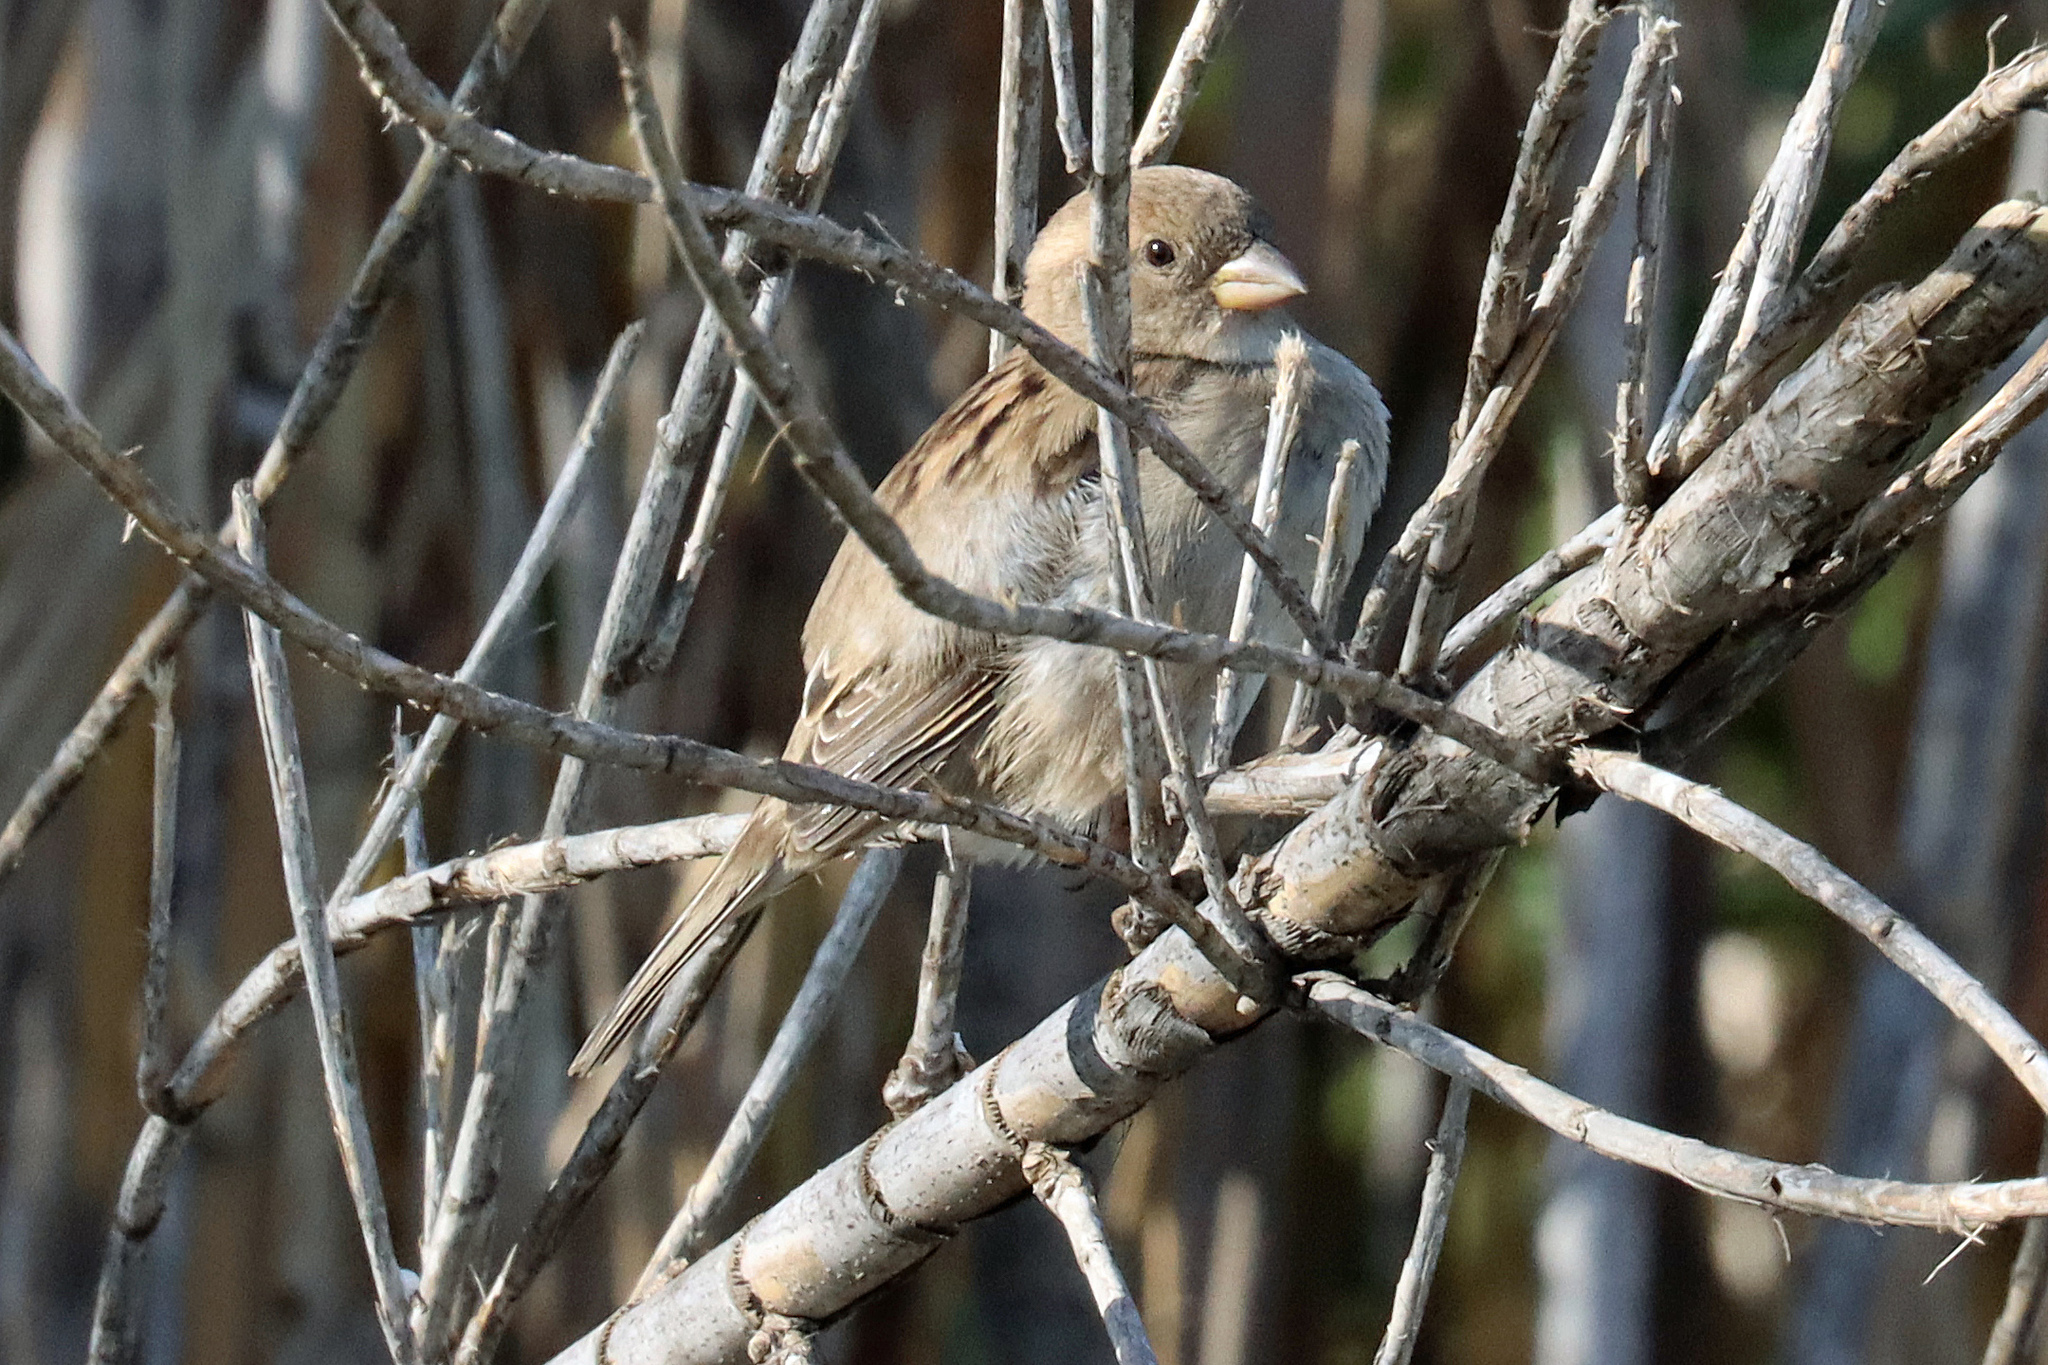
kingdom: Animalia
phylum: Chordata
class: Aves
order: Passeriformes
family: Passeridae
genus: Passer
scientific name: Passer domesticus
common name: House sparrow
